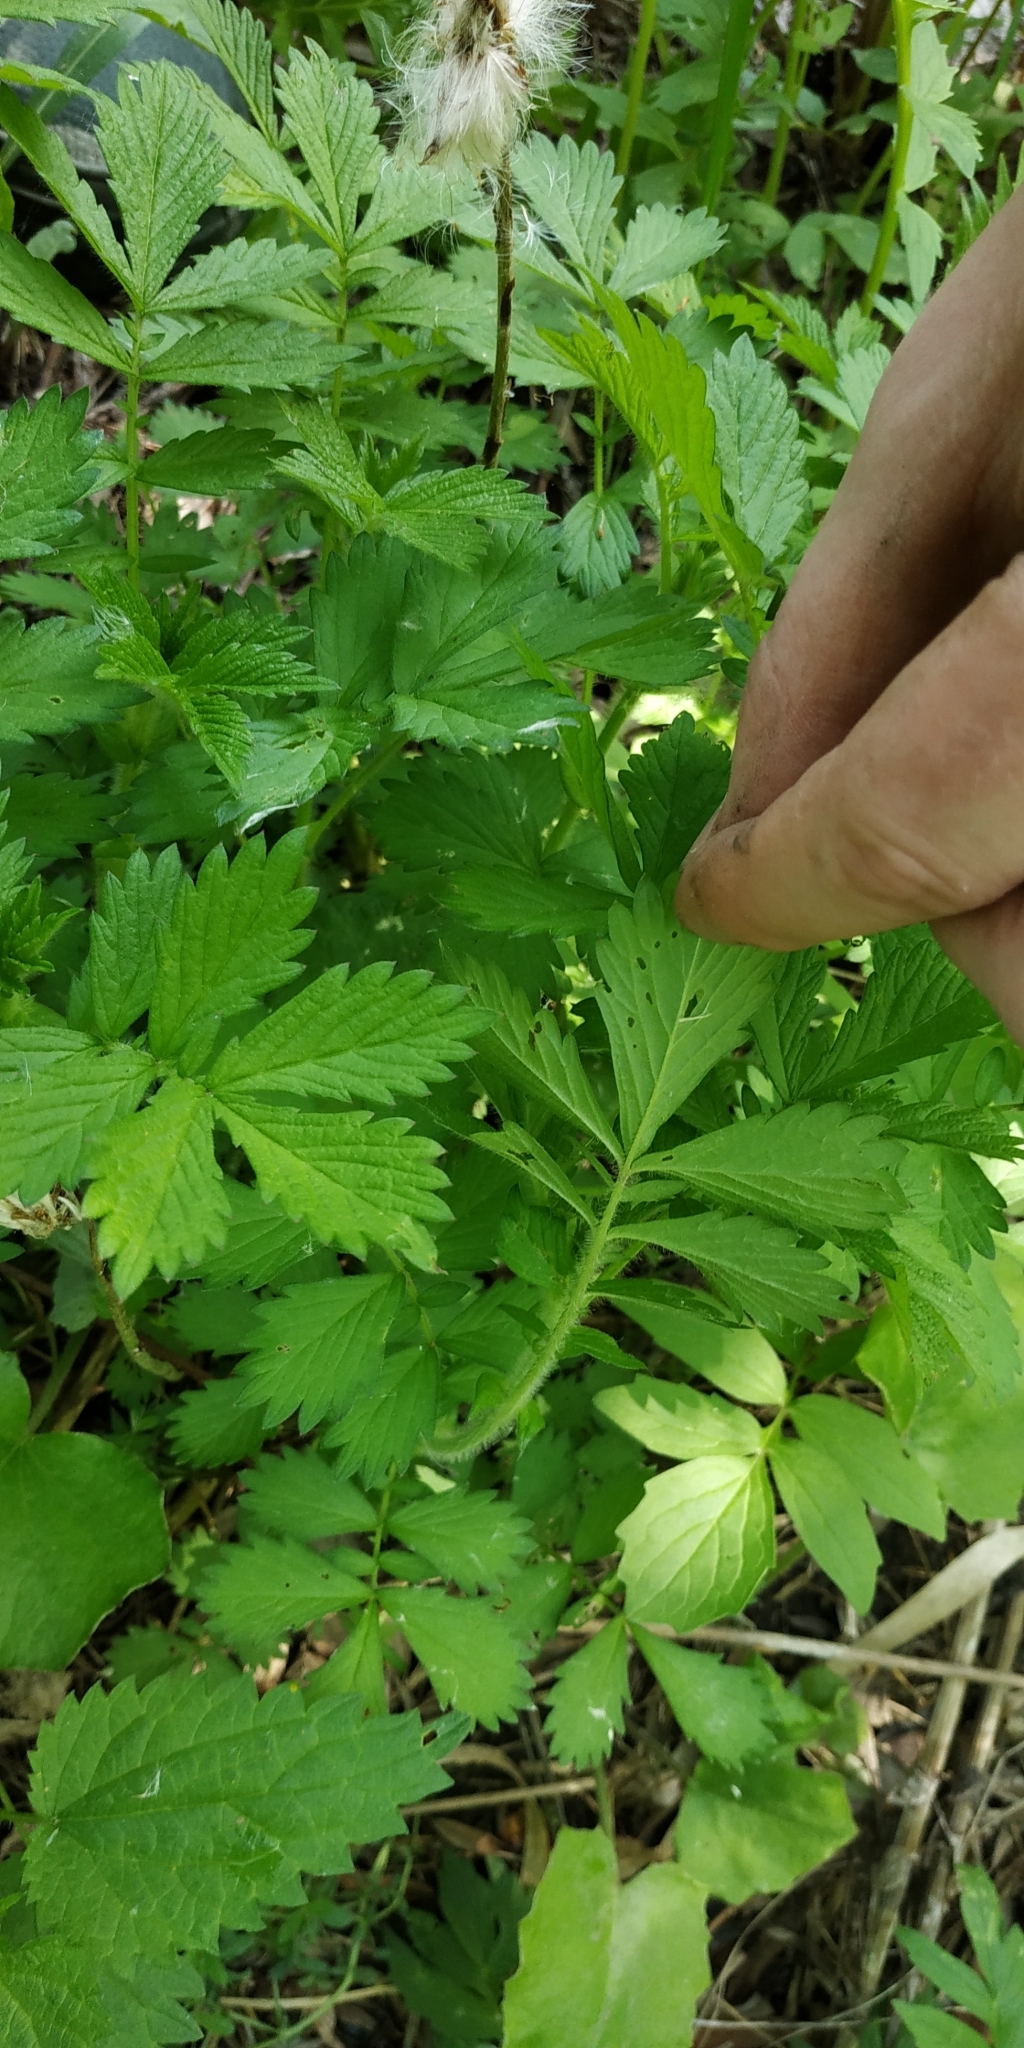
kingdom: Plantae
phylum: Tracheophyta
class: Magnoliopsida
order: Rosales
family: Rosaceae
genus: Agrimonia
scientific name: Agrimonia pilosa
